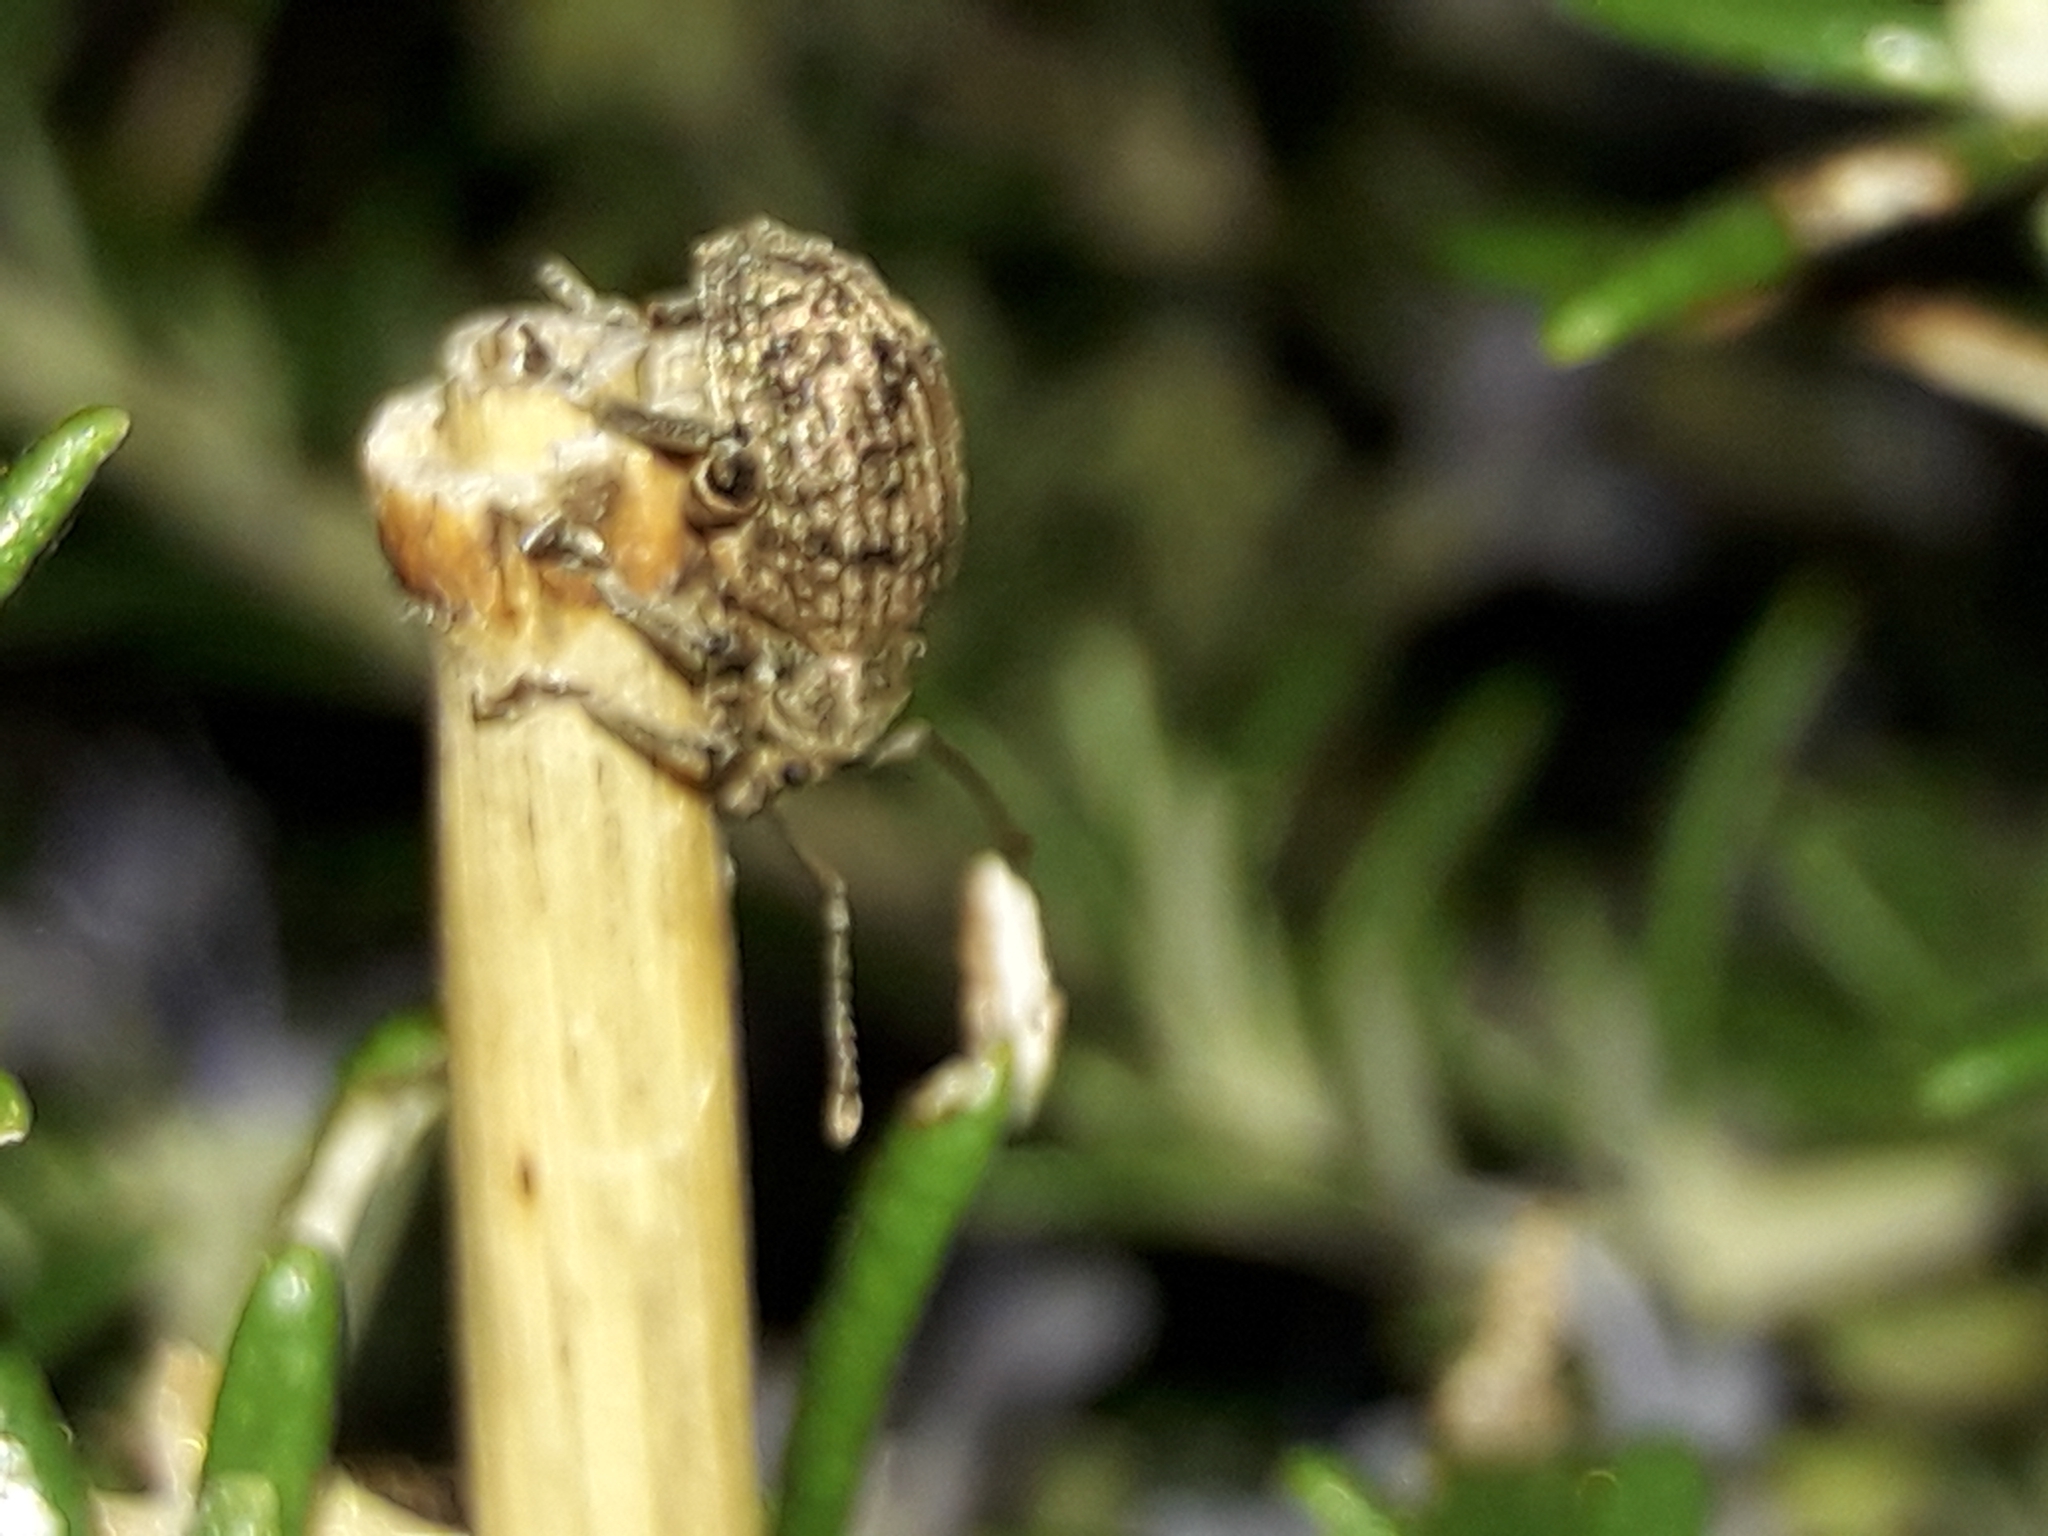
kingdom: Animalia
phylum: Arthropoda
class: Insecta
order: Coleoptera
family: Curculionidae
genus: Phlyctinus
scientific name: Phlyctinus callosus
